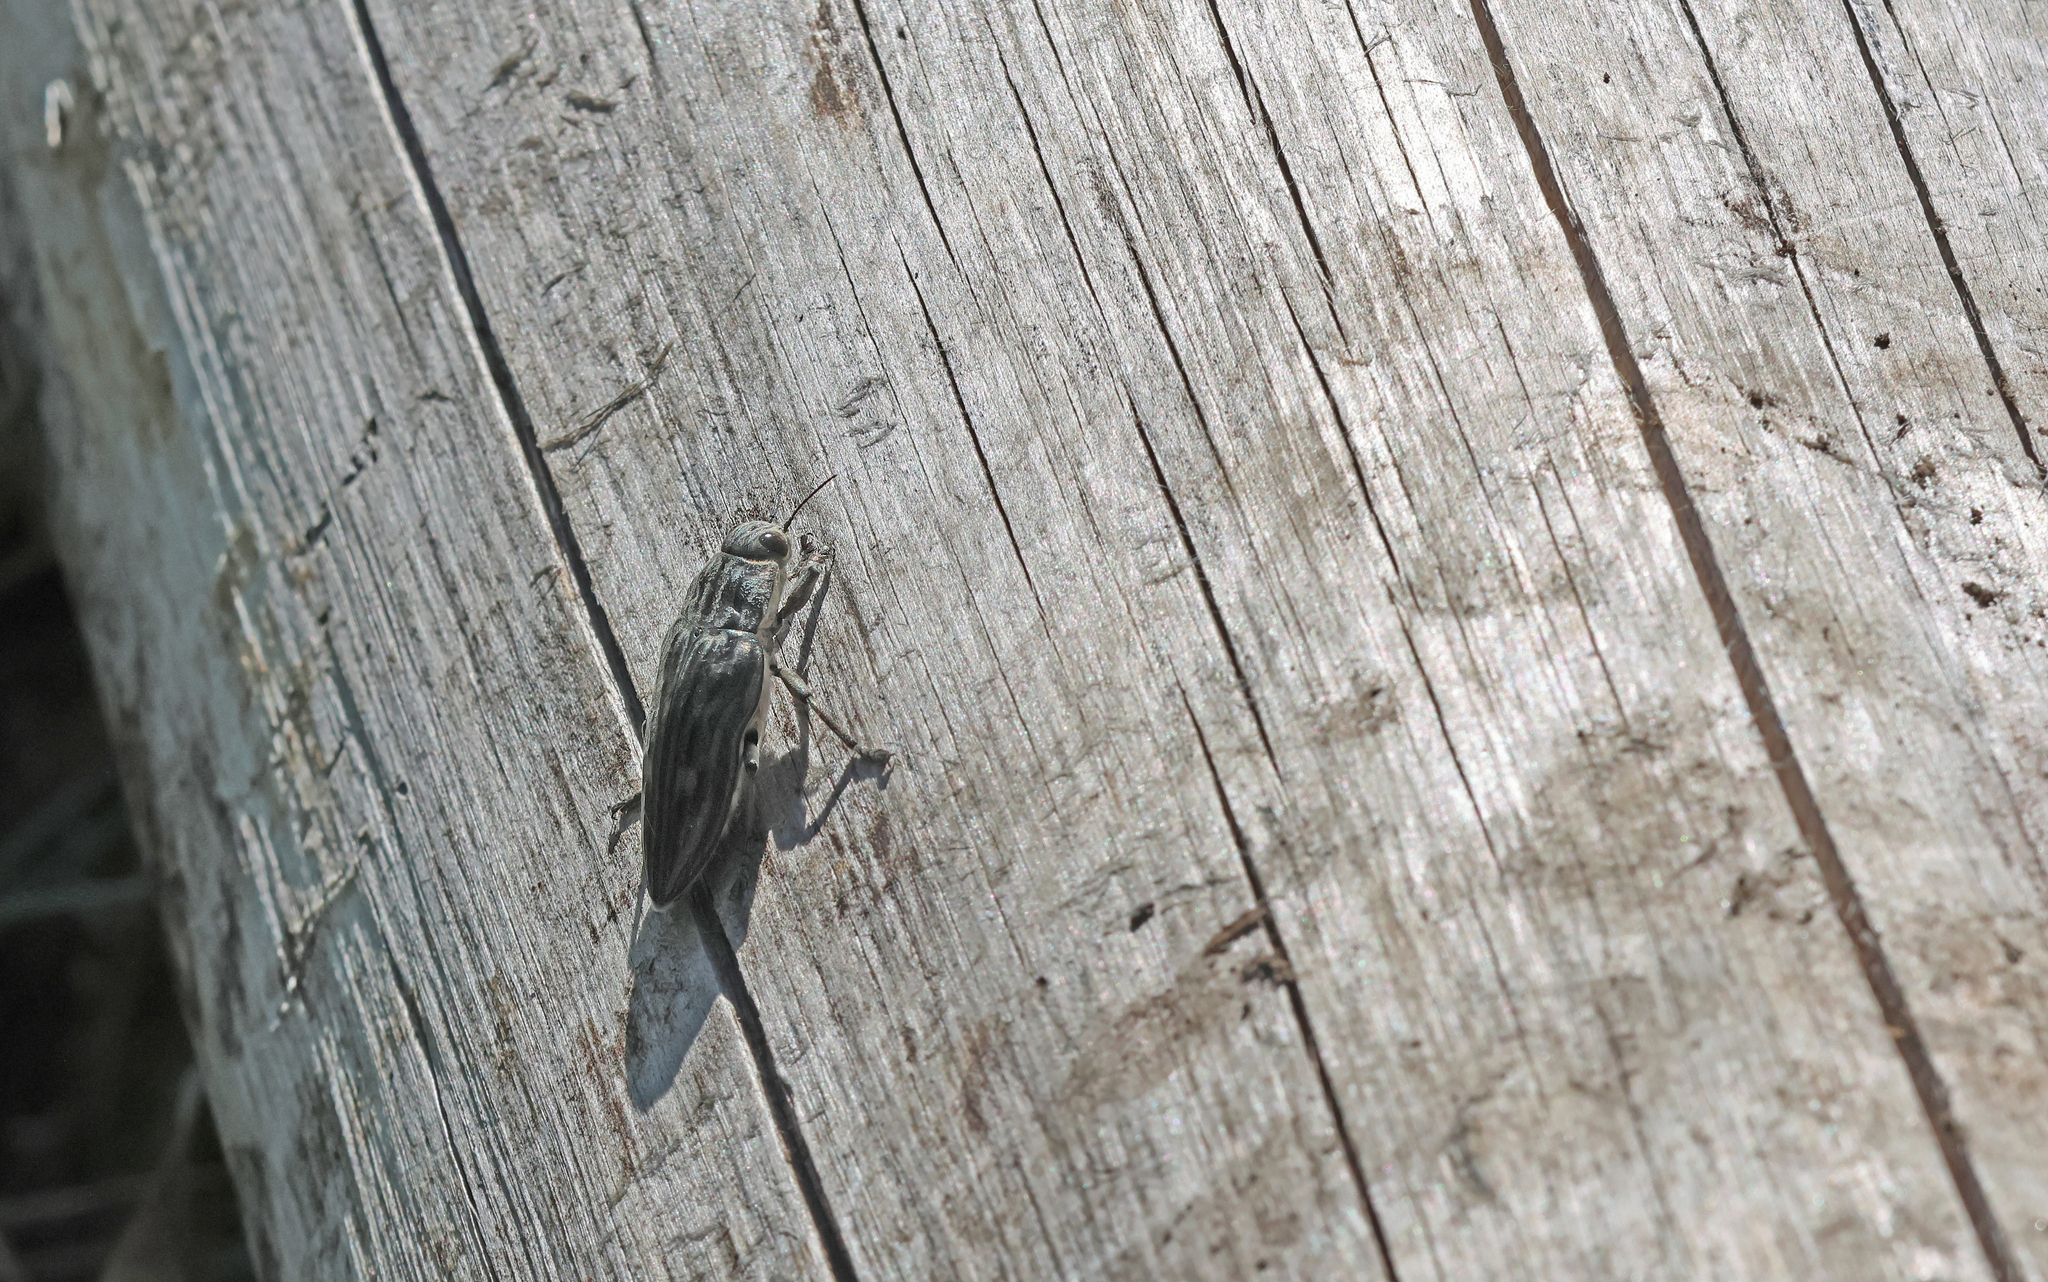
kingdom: Animalia
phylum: Arthropoda
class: Insecta
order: Coleoptera
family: Buprestidae
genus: Chalcophora
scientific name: Chalcophora mariana
